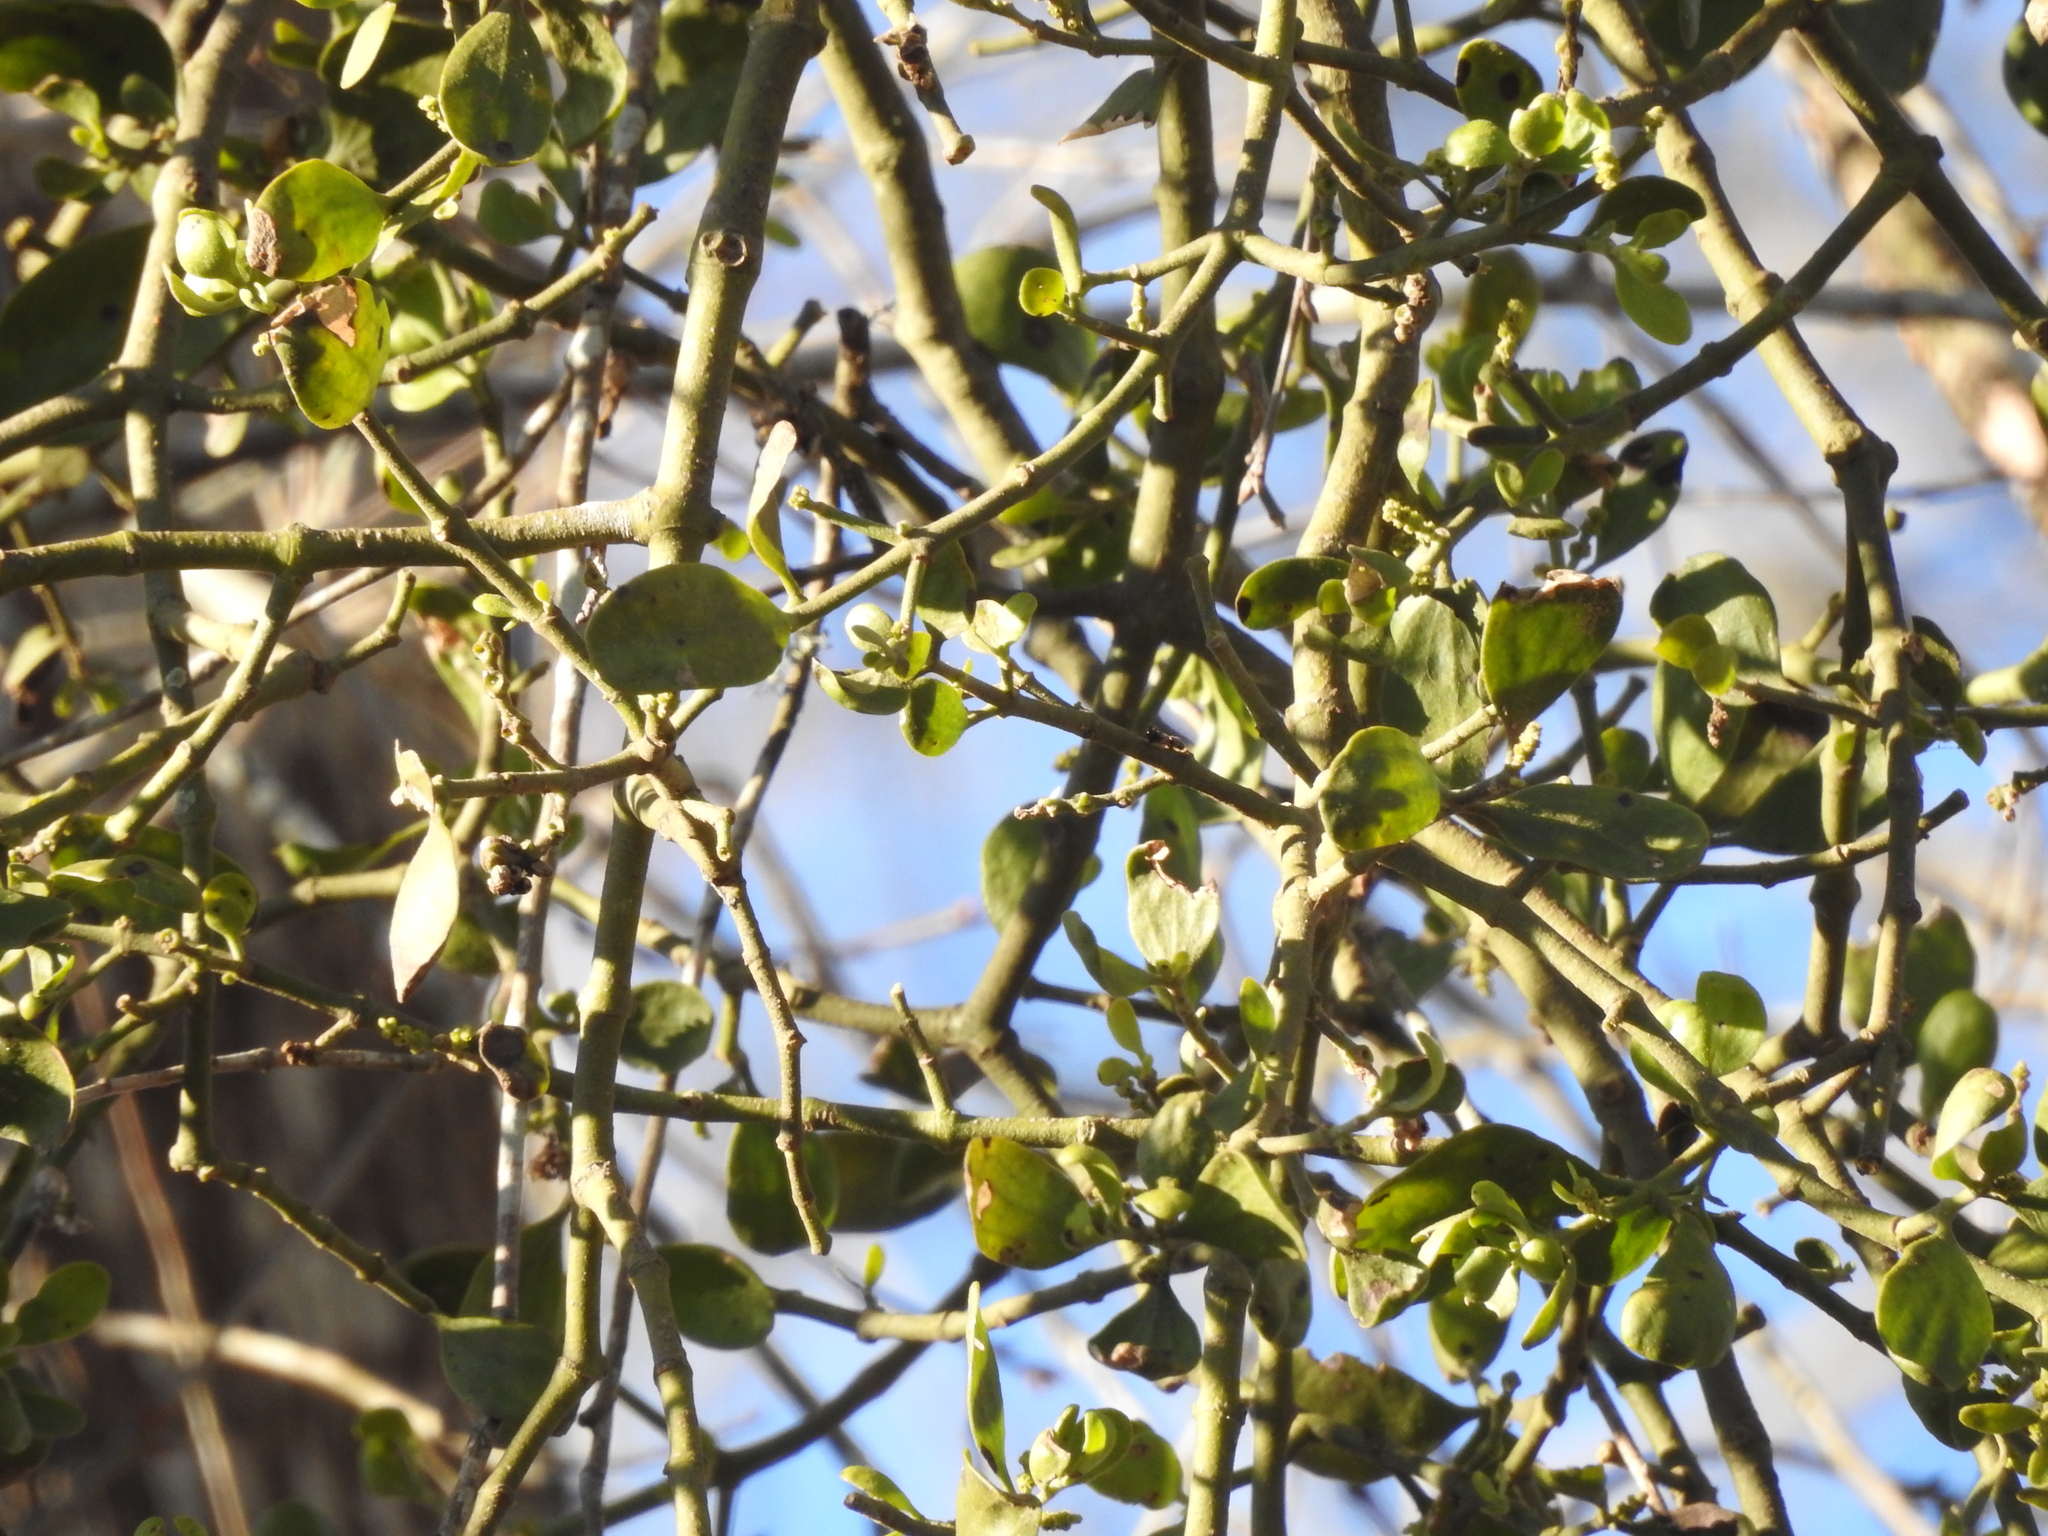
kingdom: Plantae
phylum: Tracheophyta
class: Magnoliopsida
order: Santalales
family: Viscaceae
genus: Phoradendron
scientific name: Phoradendron leucarpum
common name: Pacific mistletoe
